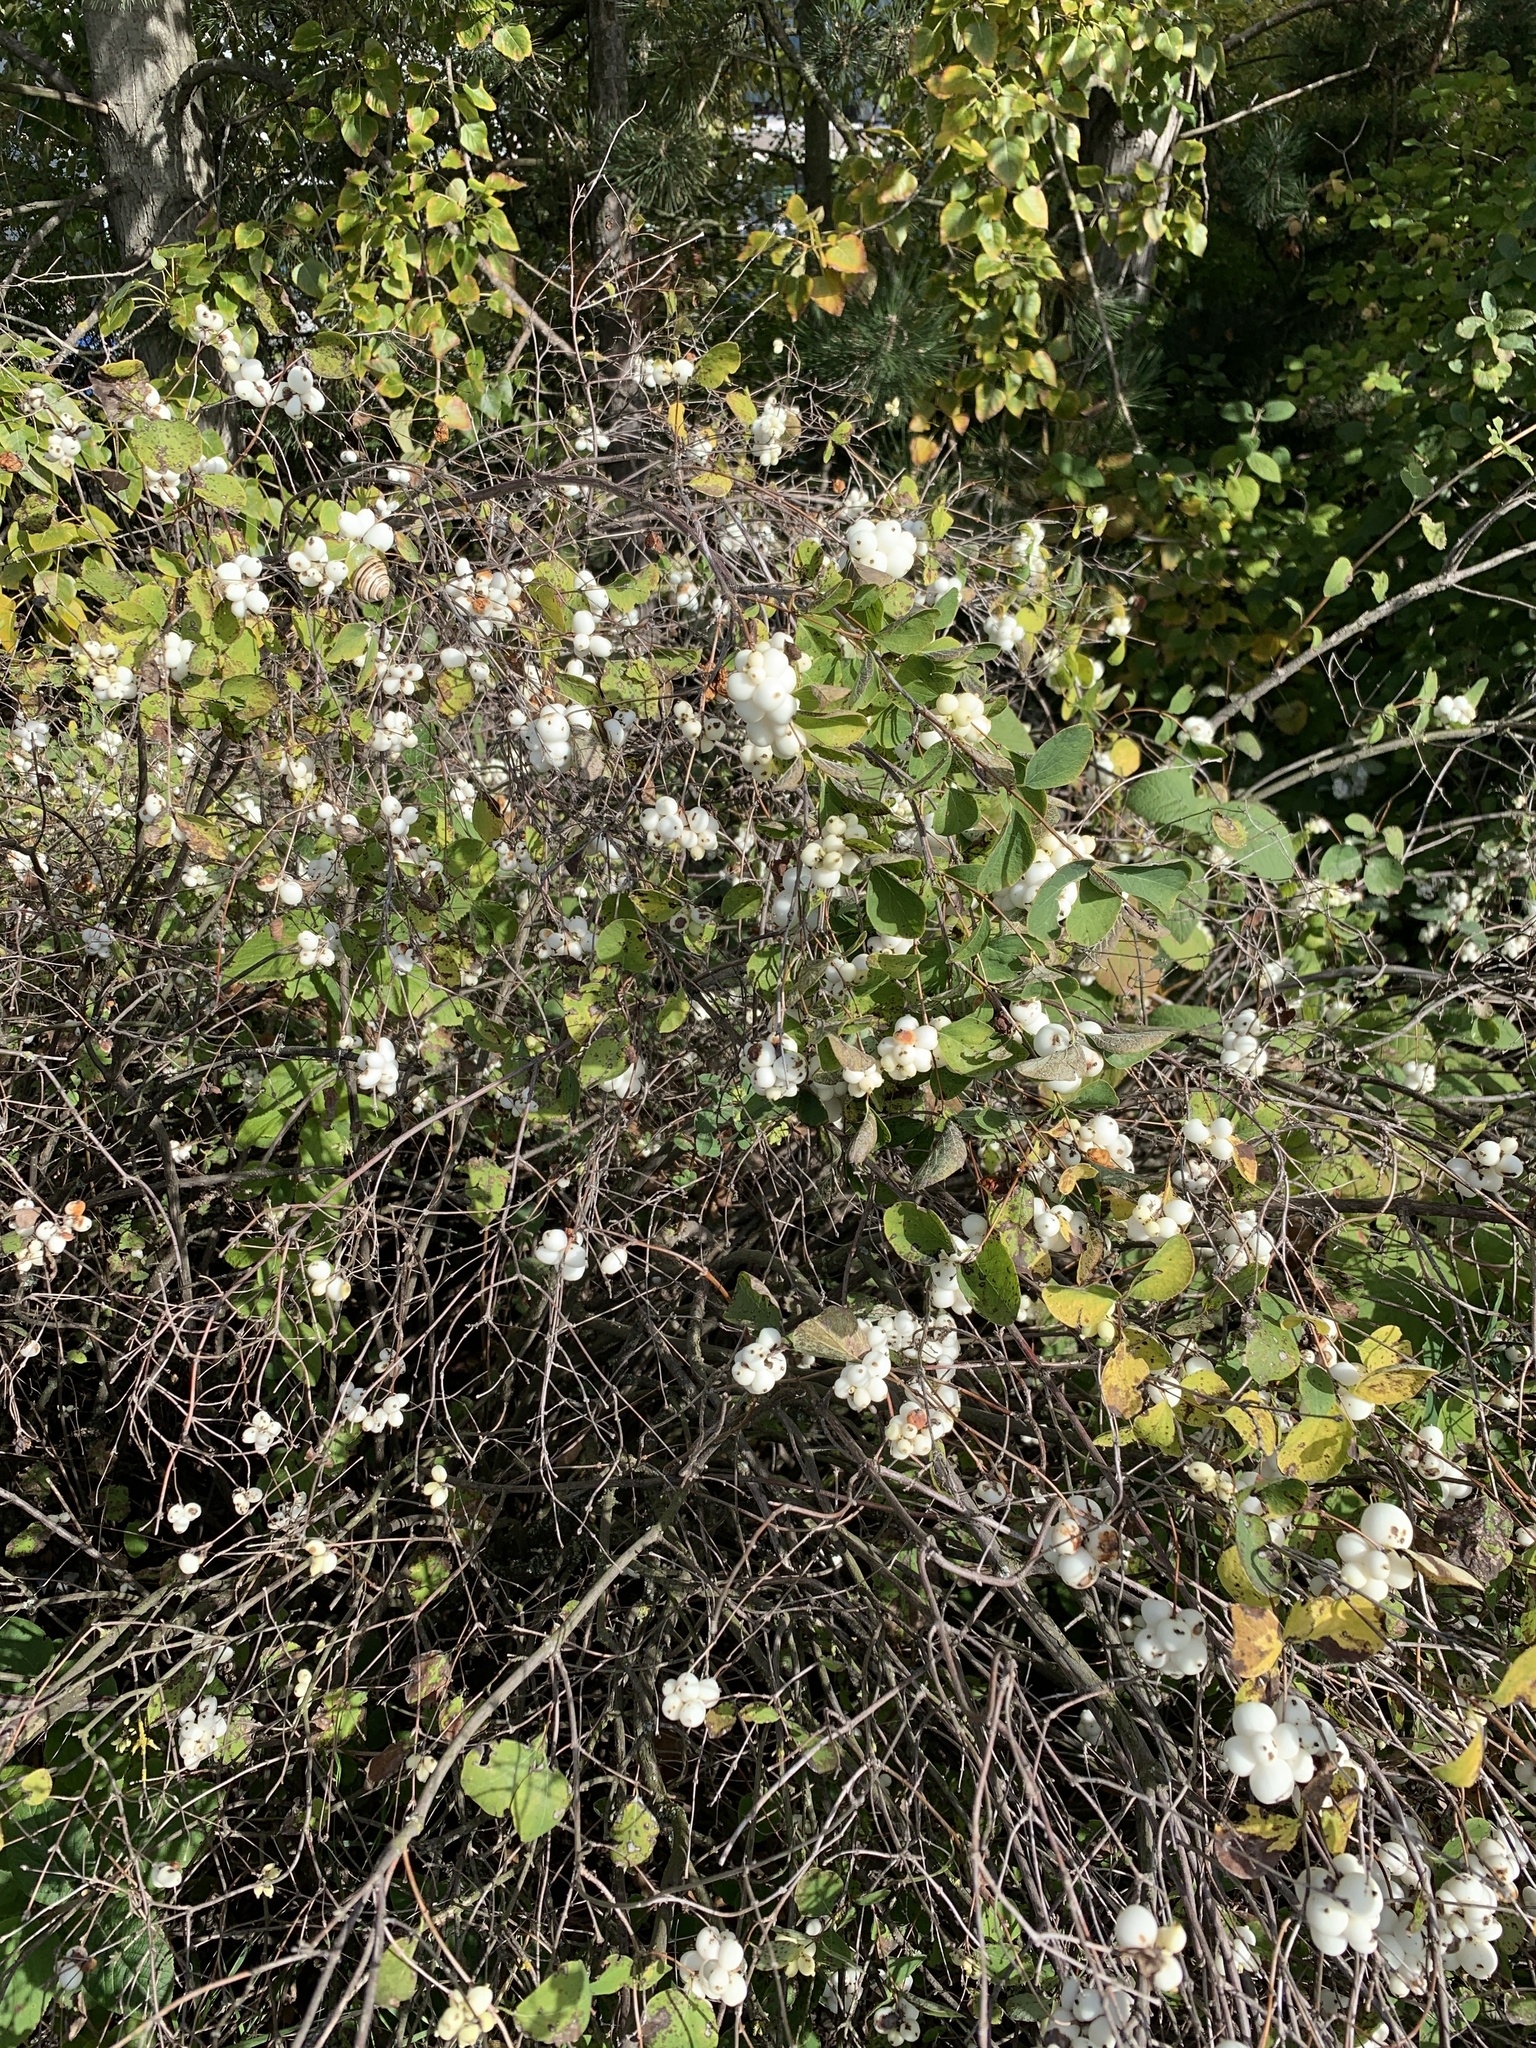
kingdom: Plantae
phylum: Tracheophyta
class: Magnoliopsida
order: Dipsacales
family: Caprifoliaceae
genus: Symphoricarpos
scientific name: Symphoricarpos albus
